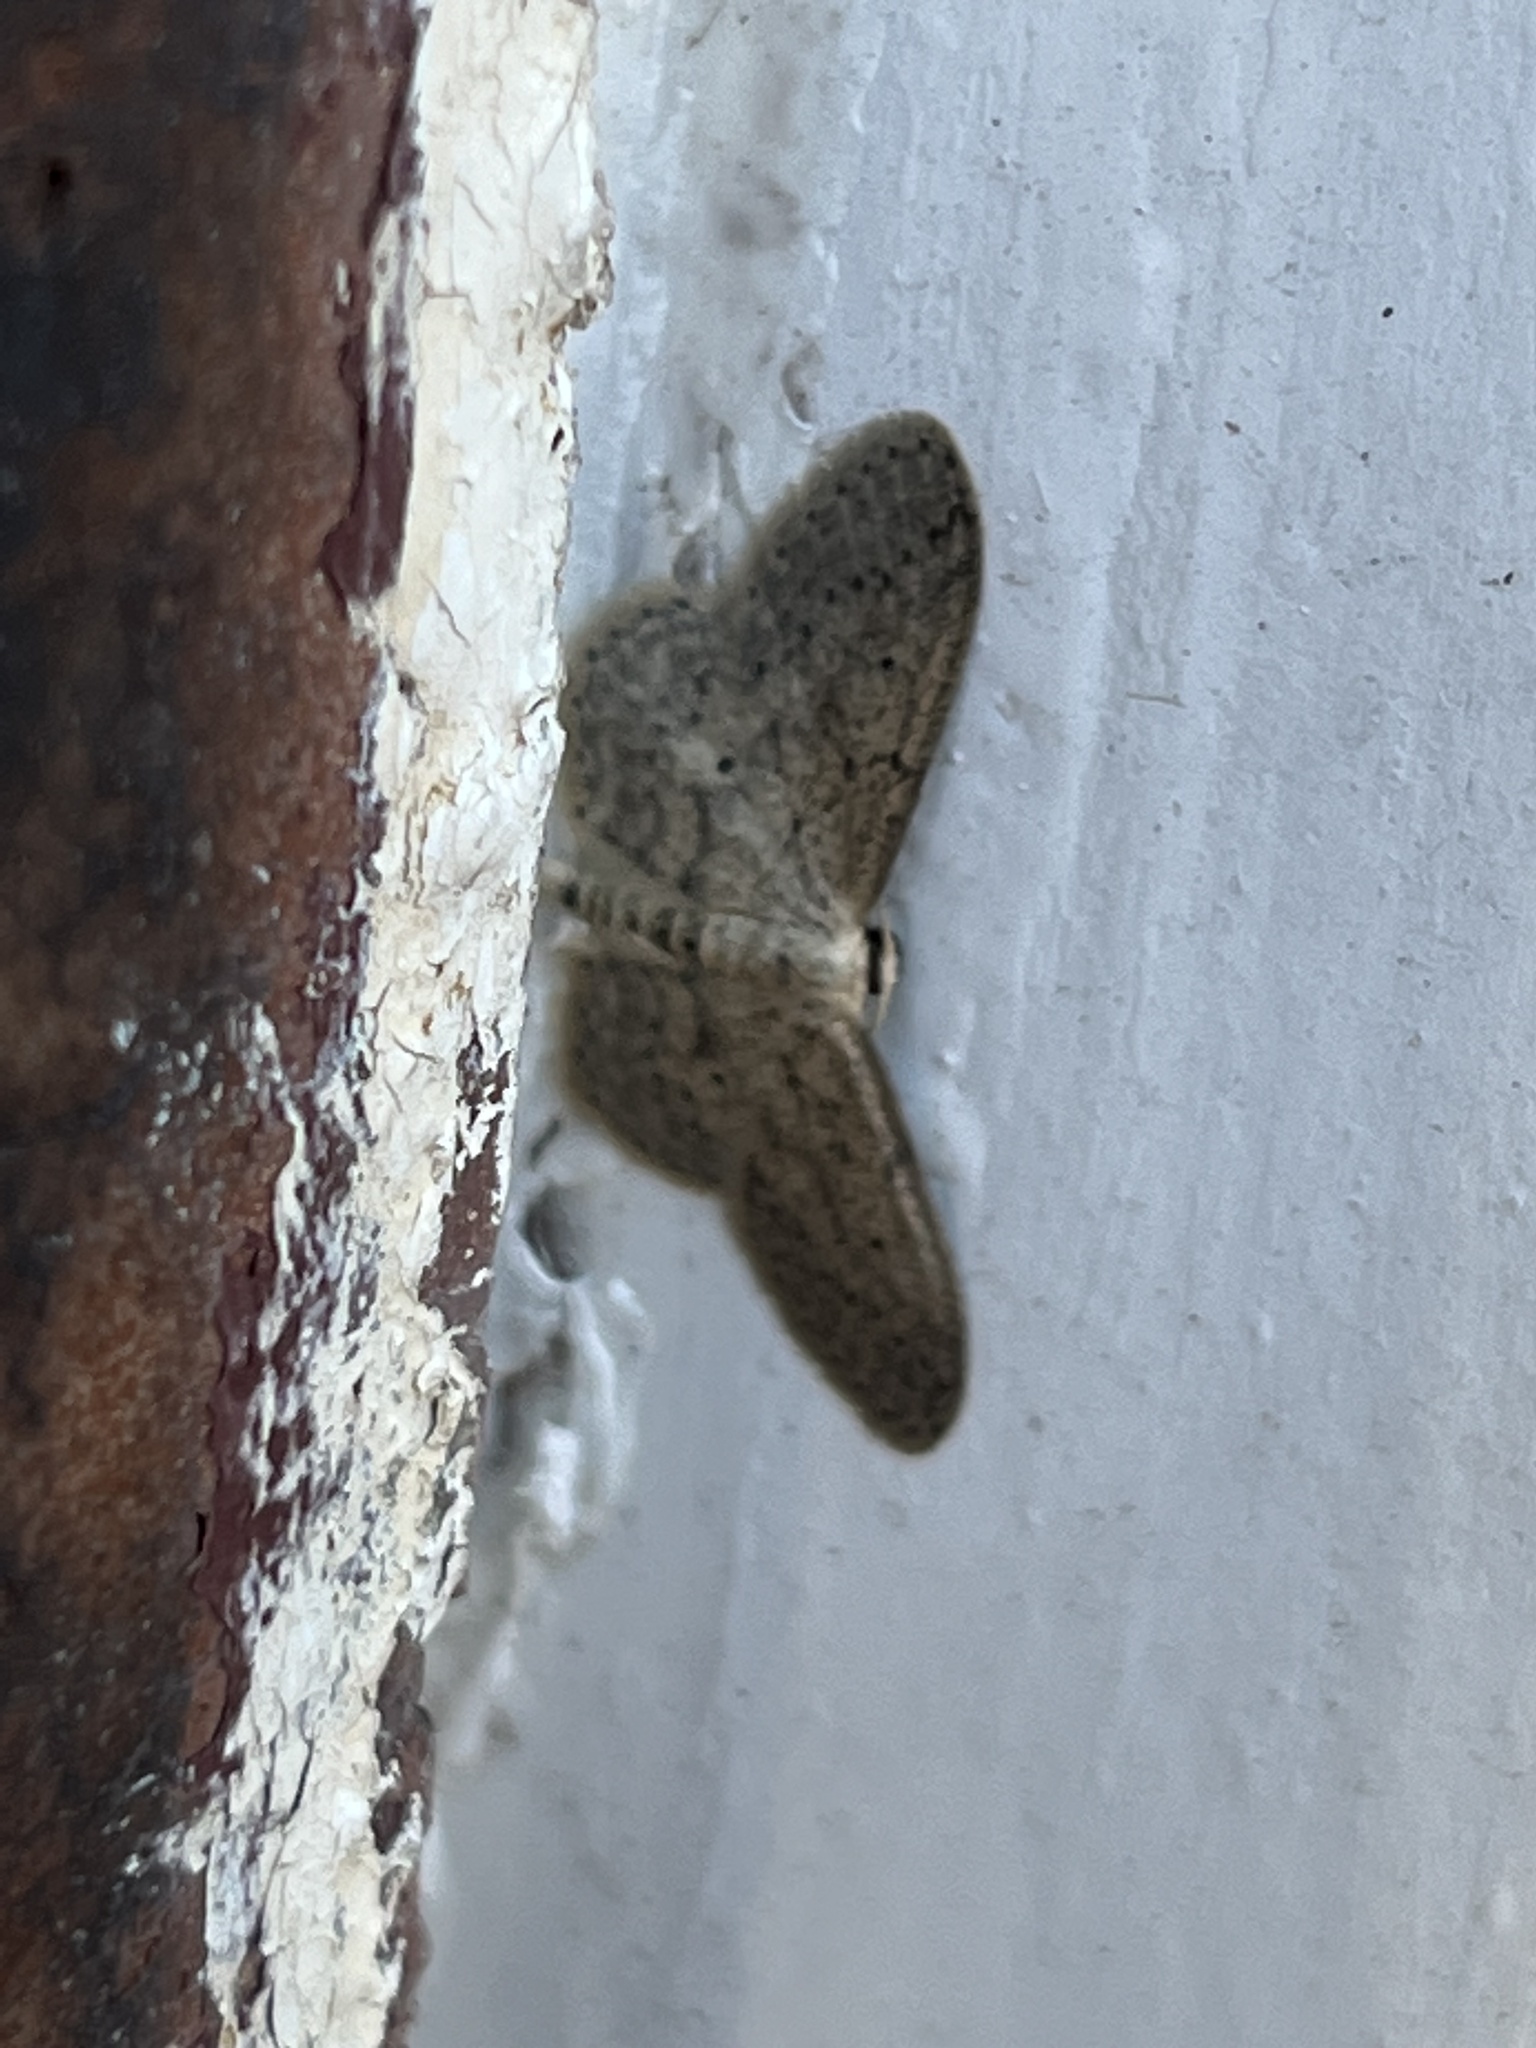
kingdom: Animalia
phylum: Arthropoda
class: Insecta
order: Lepidoptera
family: Geometridae
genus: Idaea
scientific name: Idaea seriata
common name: Small dusty wave
